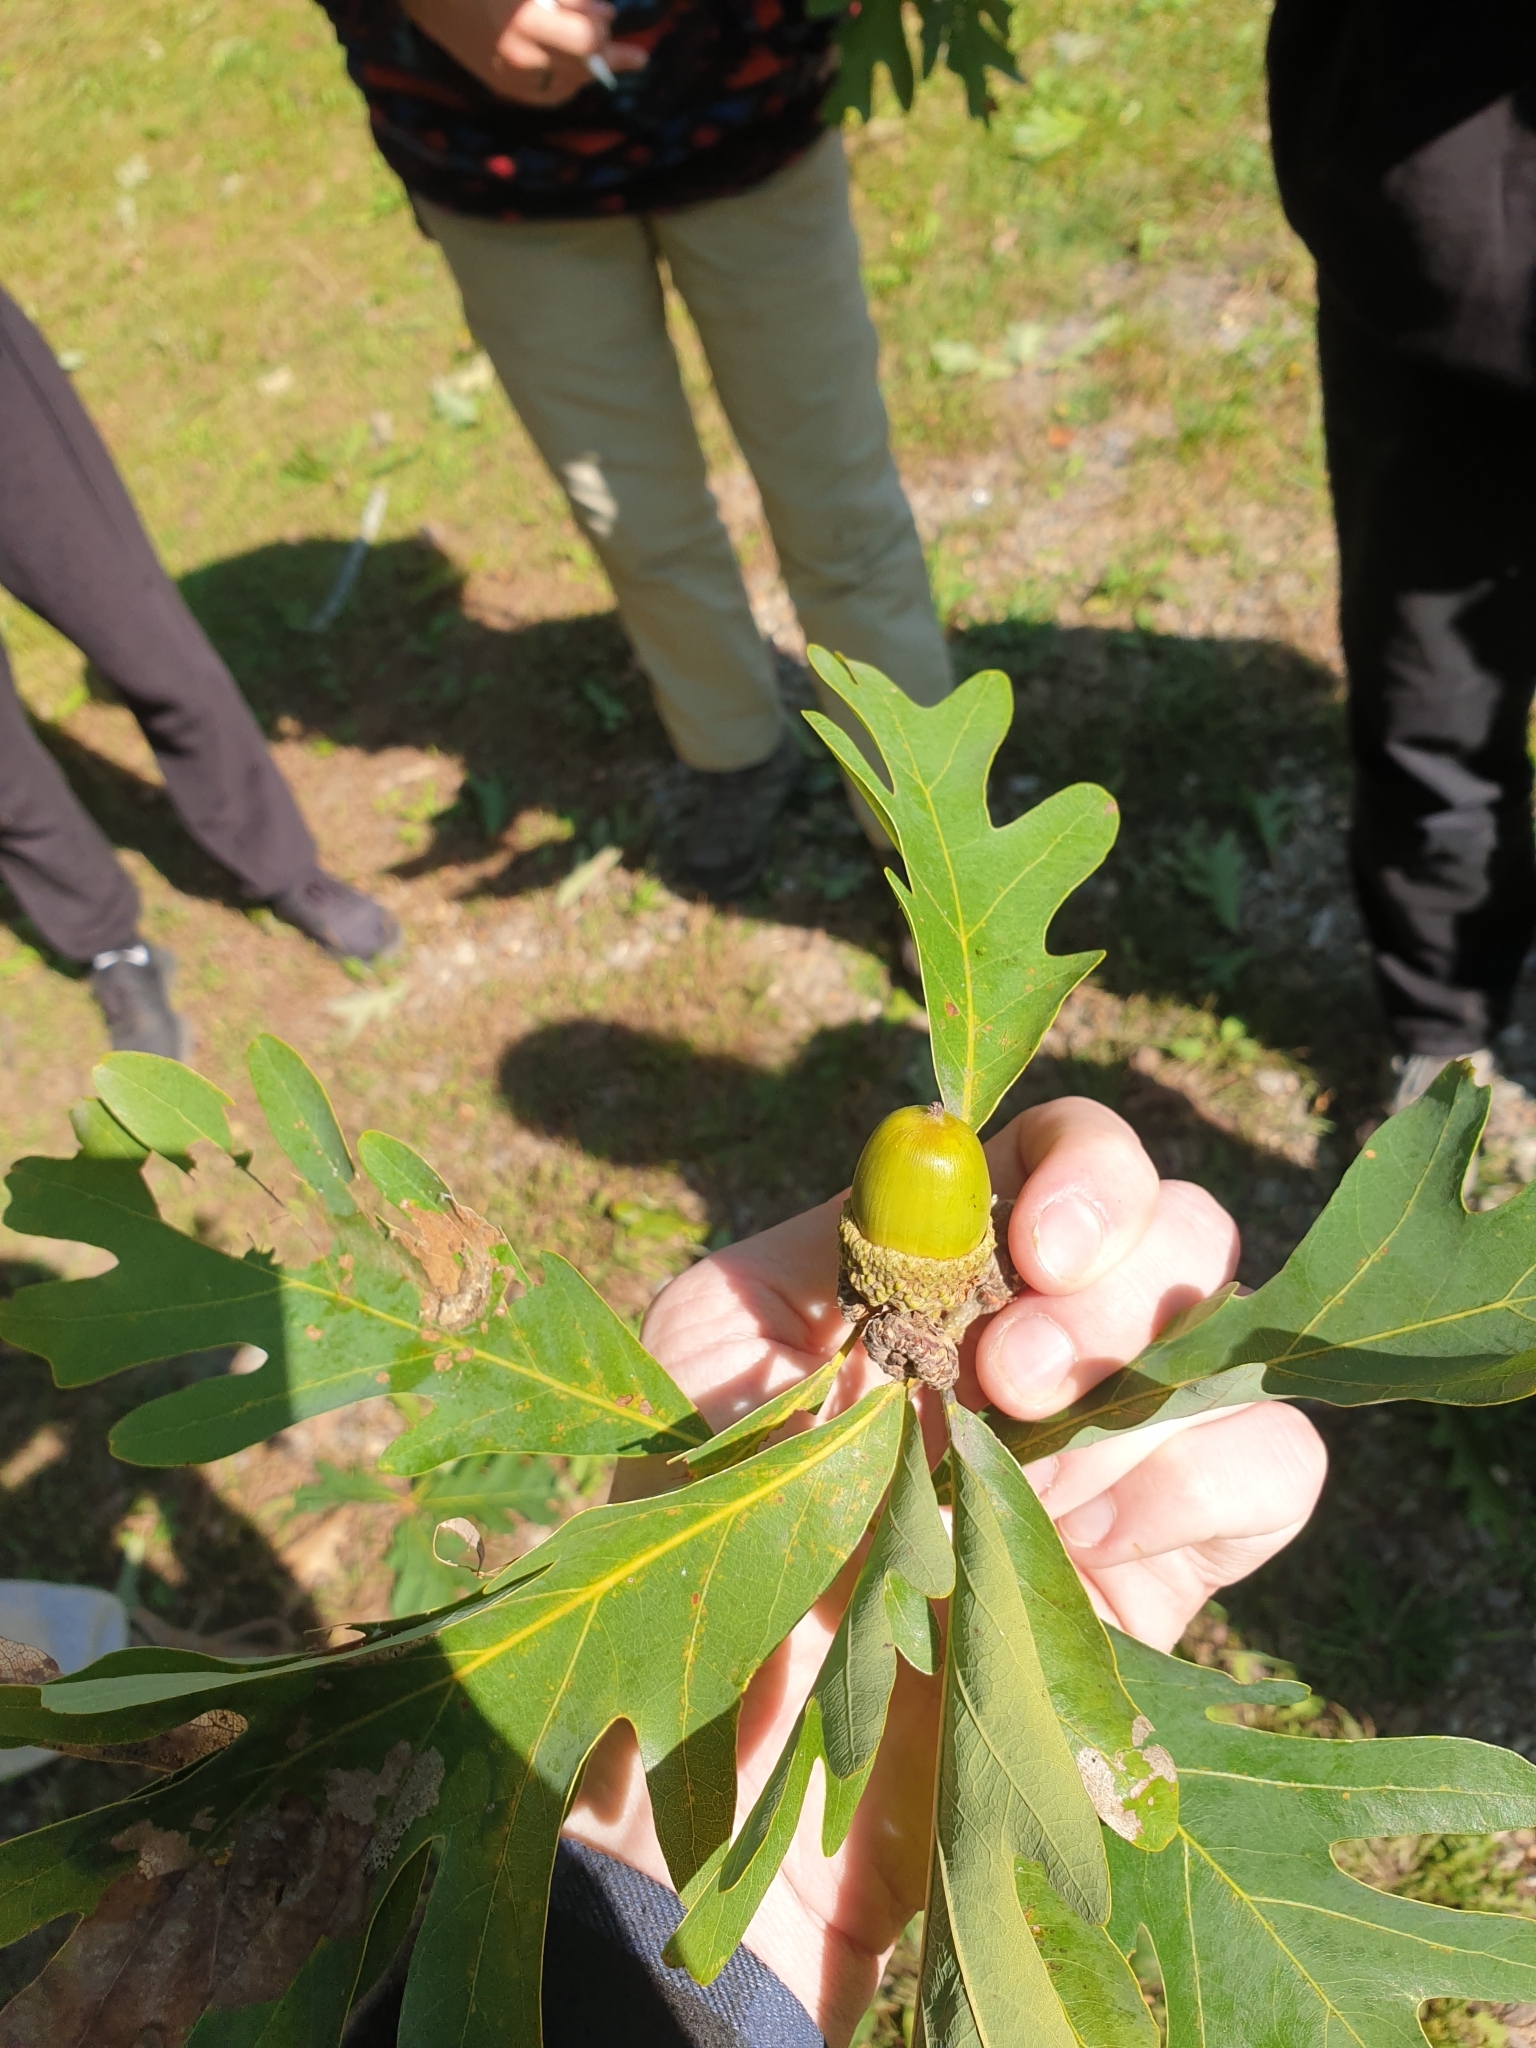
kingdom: Plantae
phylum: Tracheophyta
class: Magnoliopsida
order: Fagales
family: Fagaceae
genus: Quercus
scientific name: Quercus alba
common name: White oak
